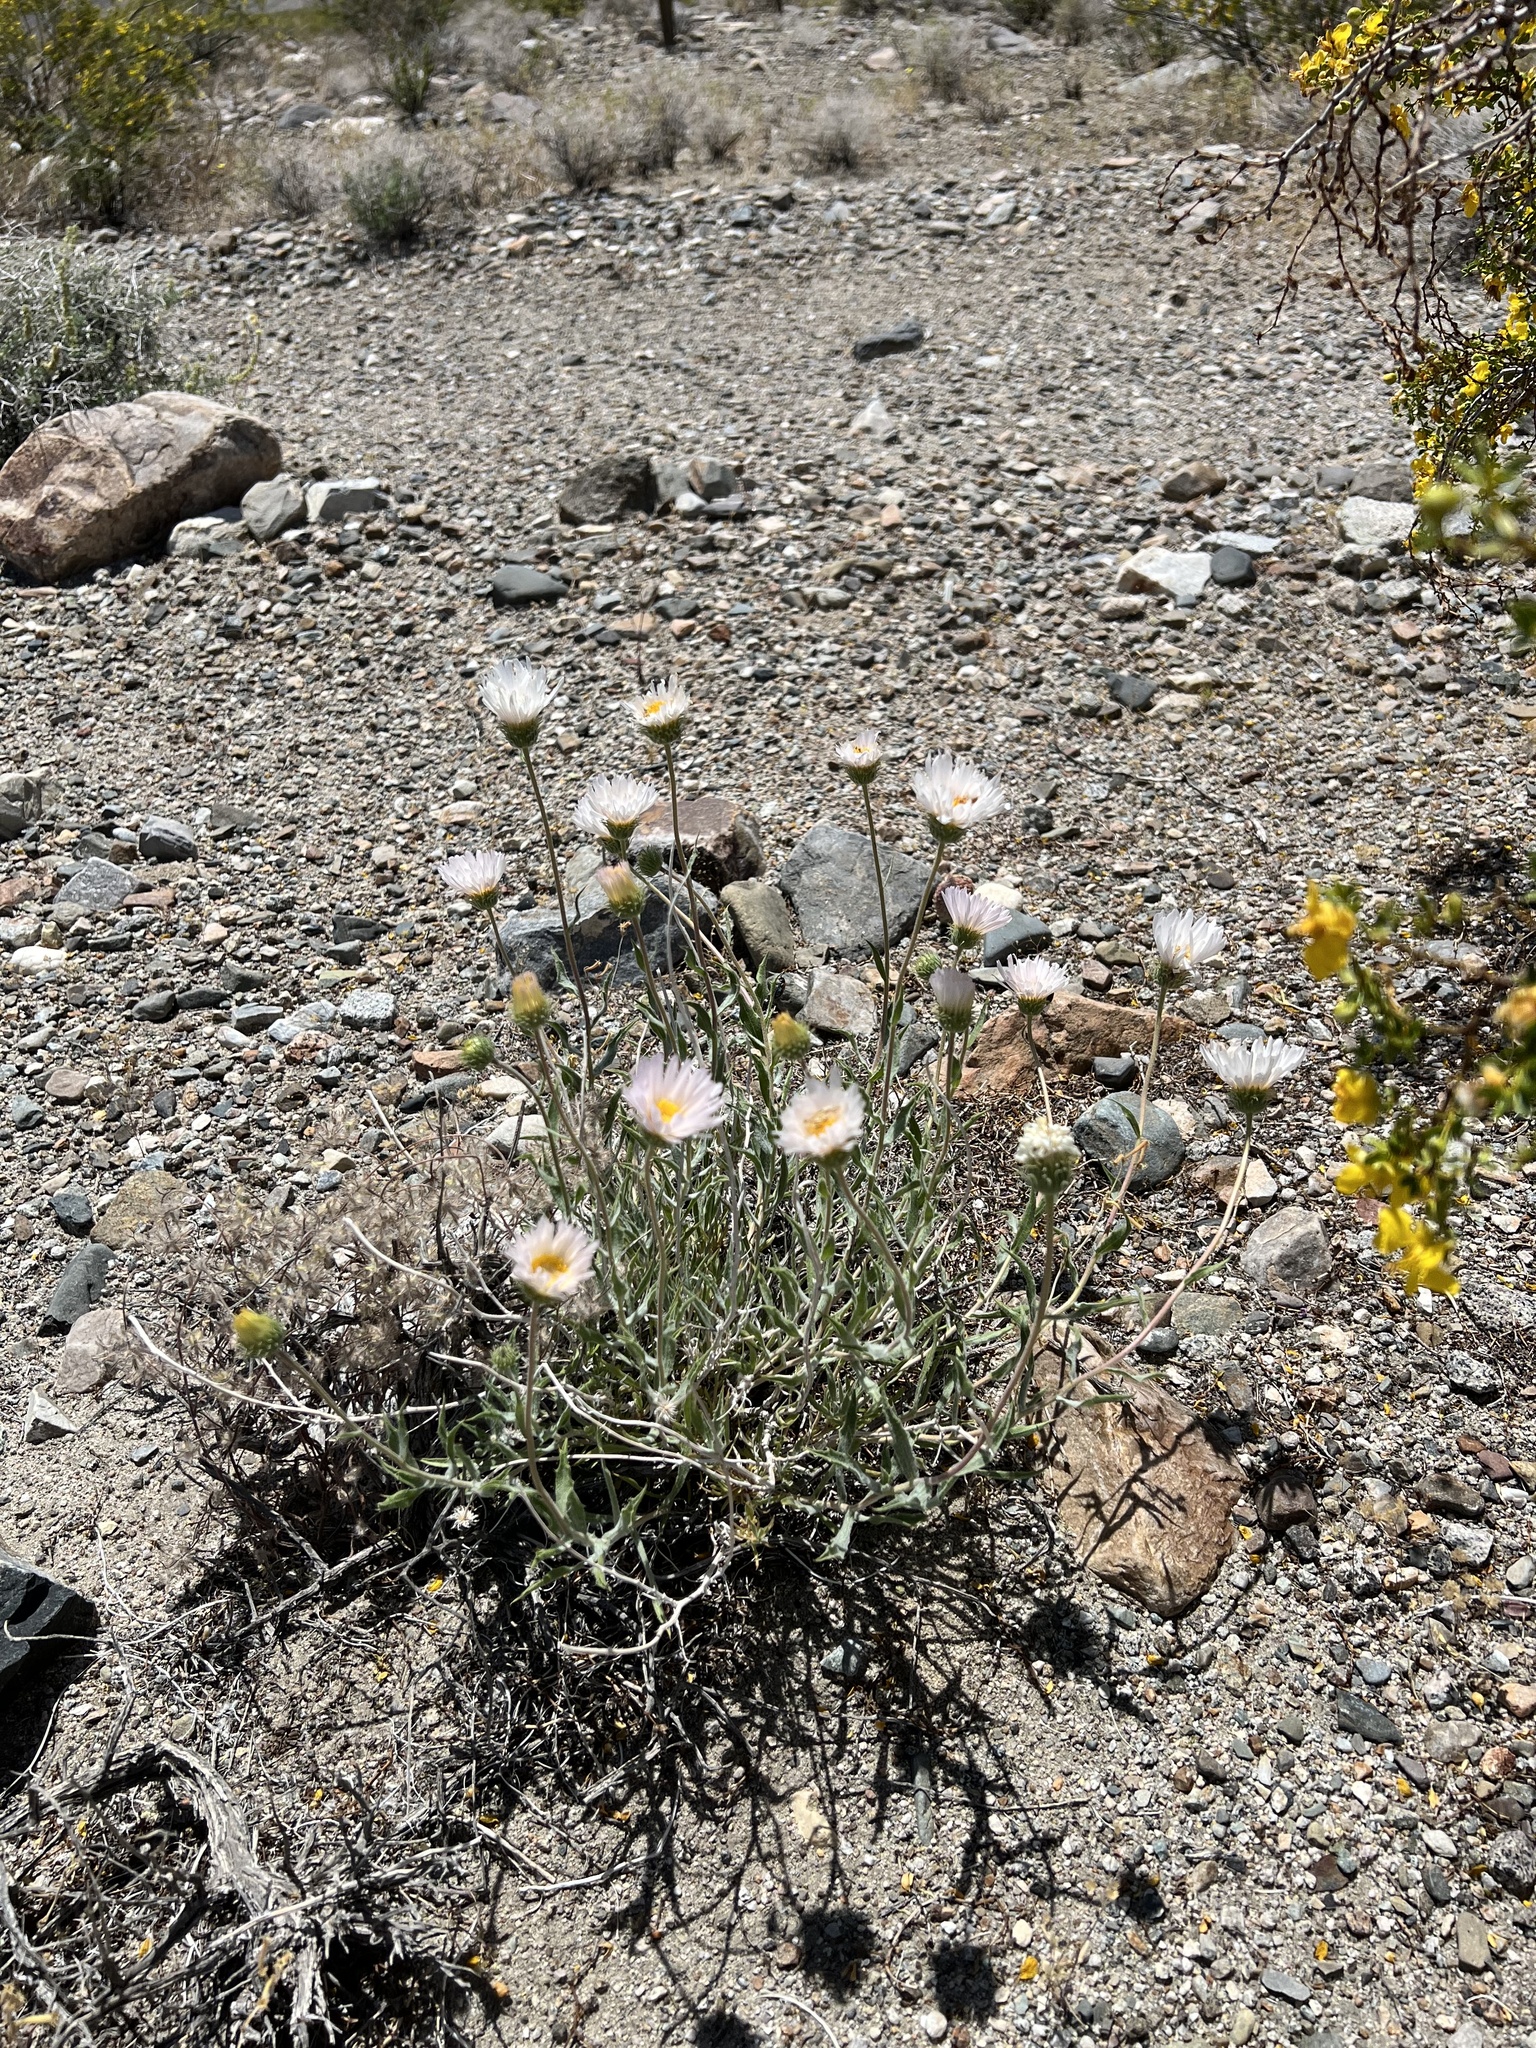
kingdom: Plantae
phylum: Tracheophyta
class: Magnoliopsida
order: Asterales
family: Asteraceae
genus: Xylorhiza
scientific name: Xylorhiza tortifolia
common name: Hurt-leaf woody-aster
